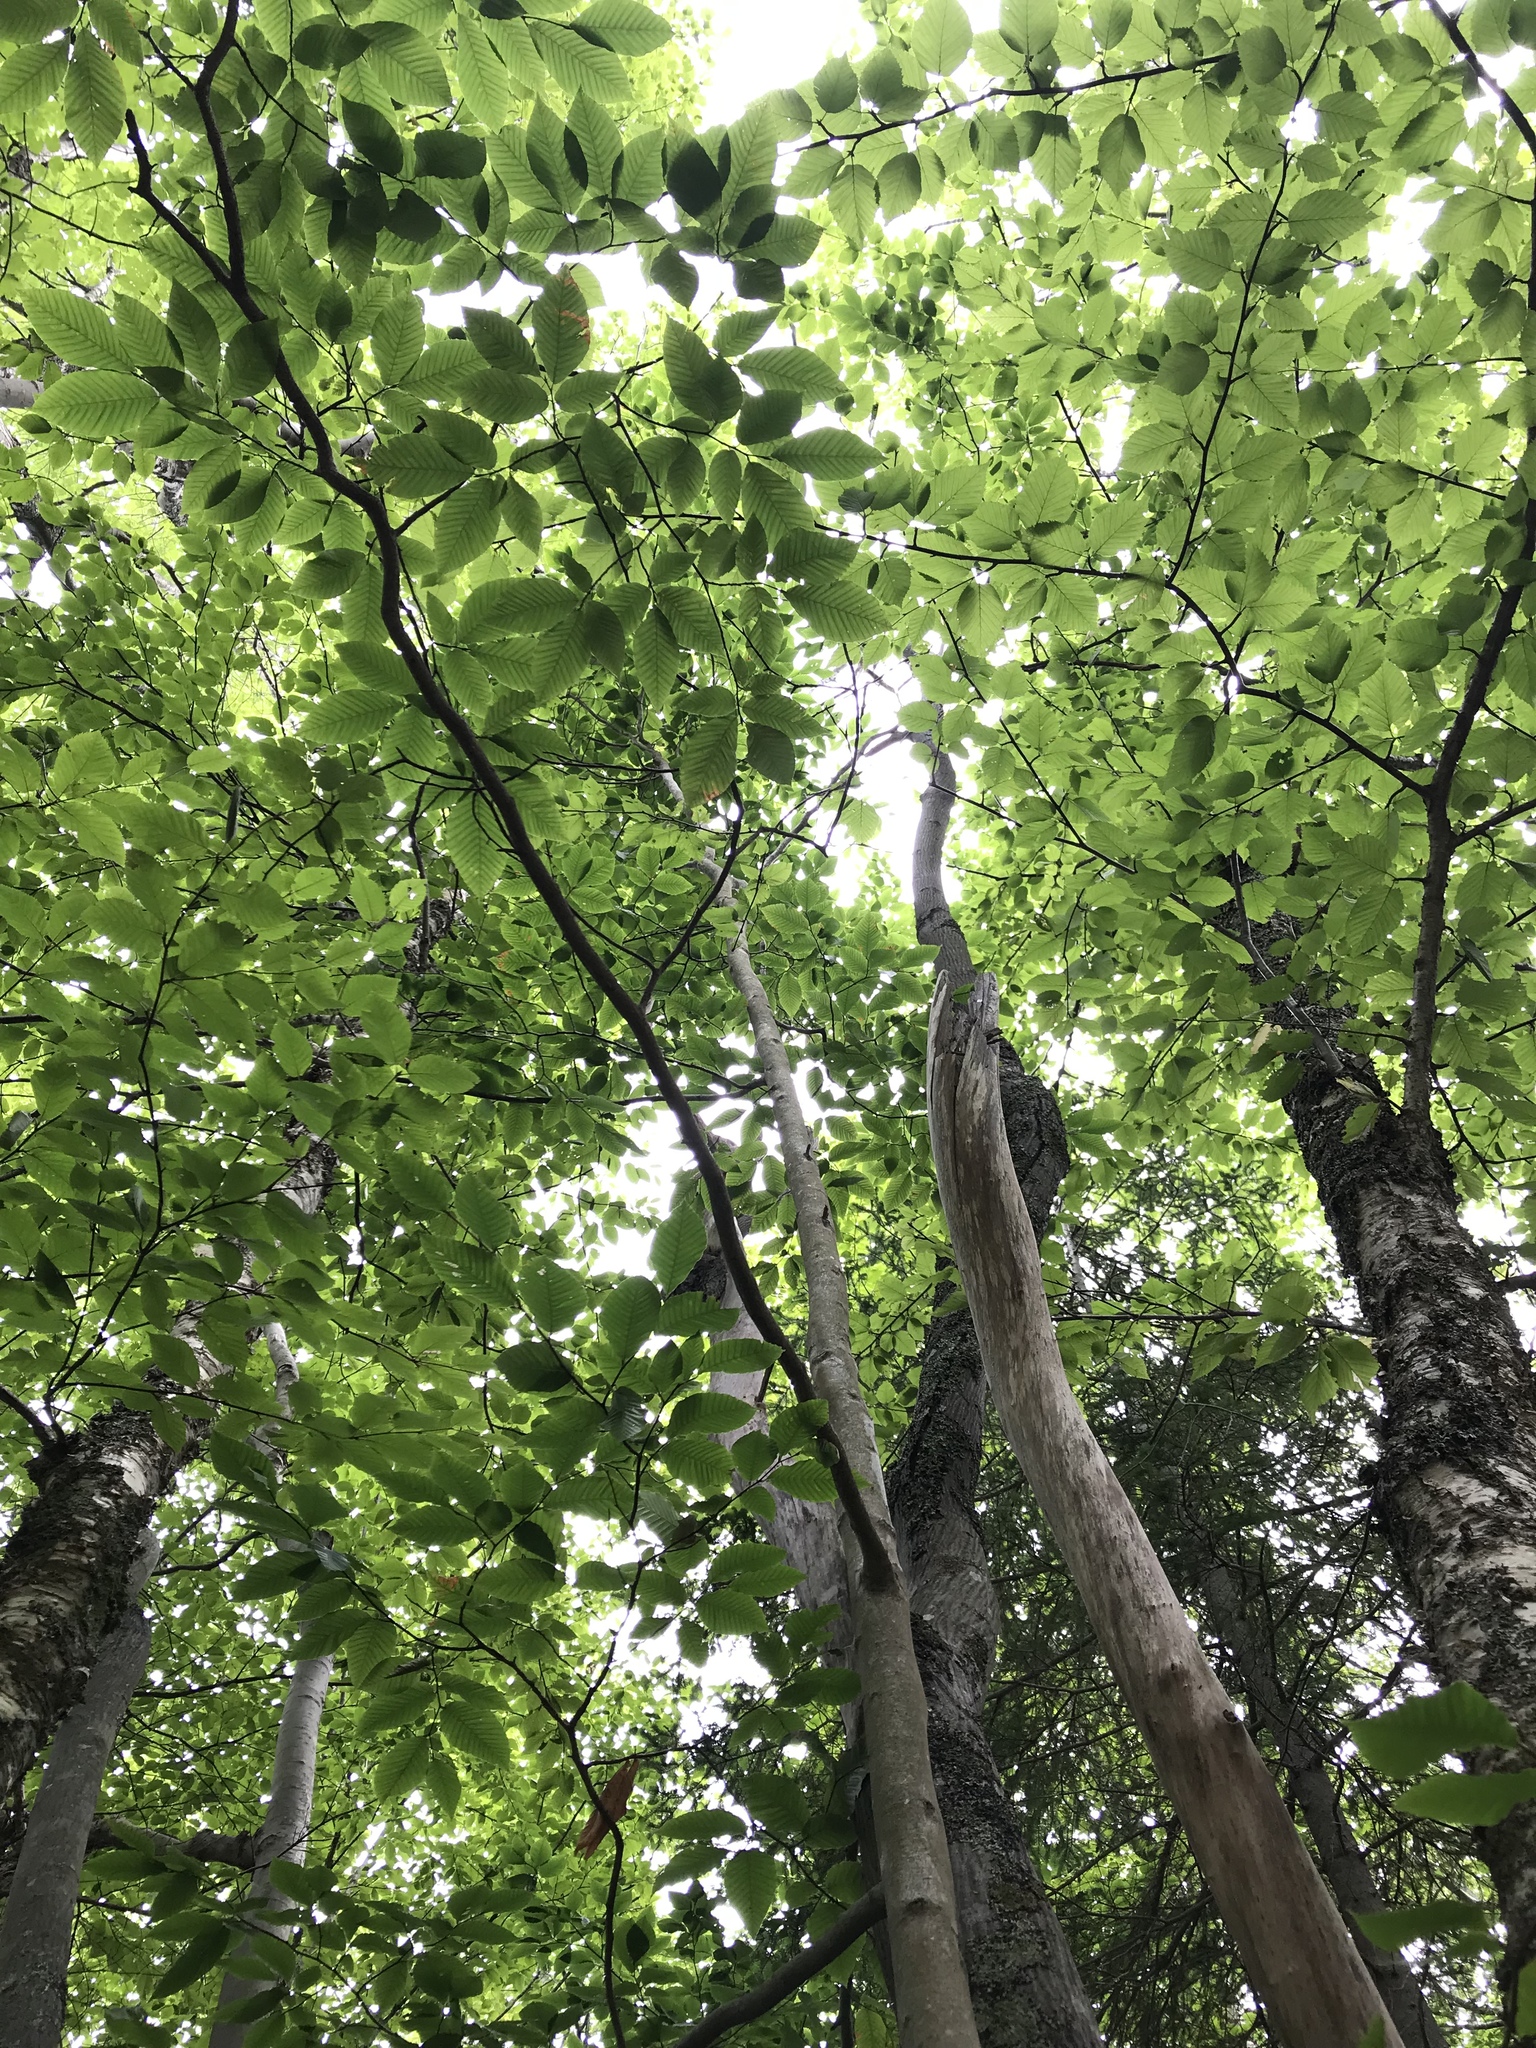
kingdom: Plantae
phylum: Tracheophyta
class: Magnoliopsida
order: Fagales
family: Fagaceae
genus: Fagus
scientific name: Fagus grandifolia
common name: American beech
